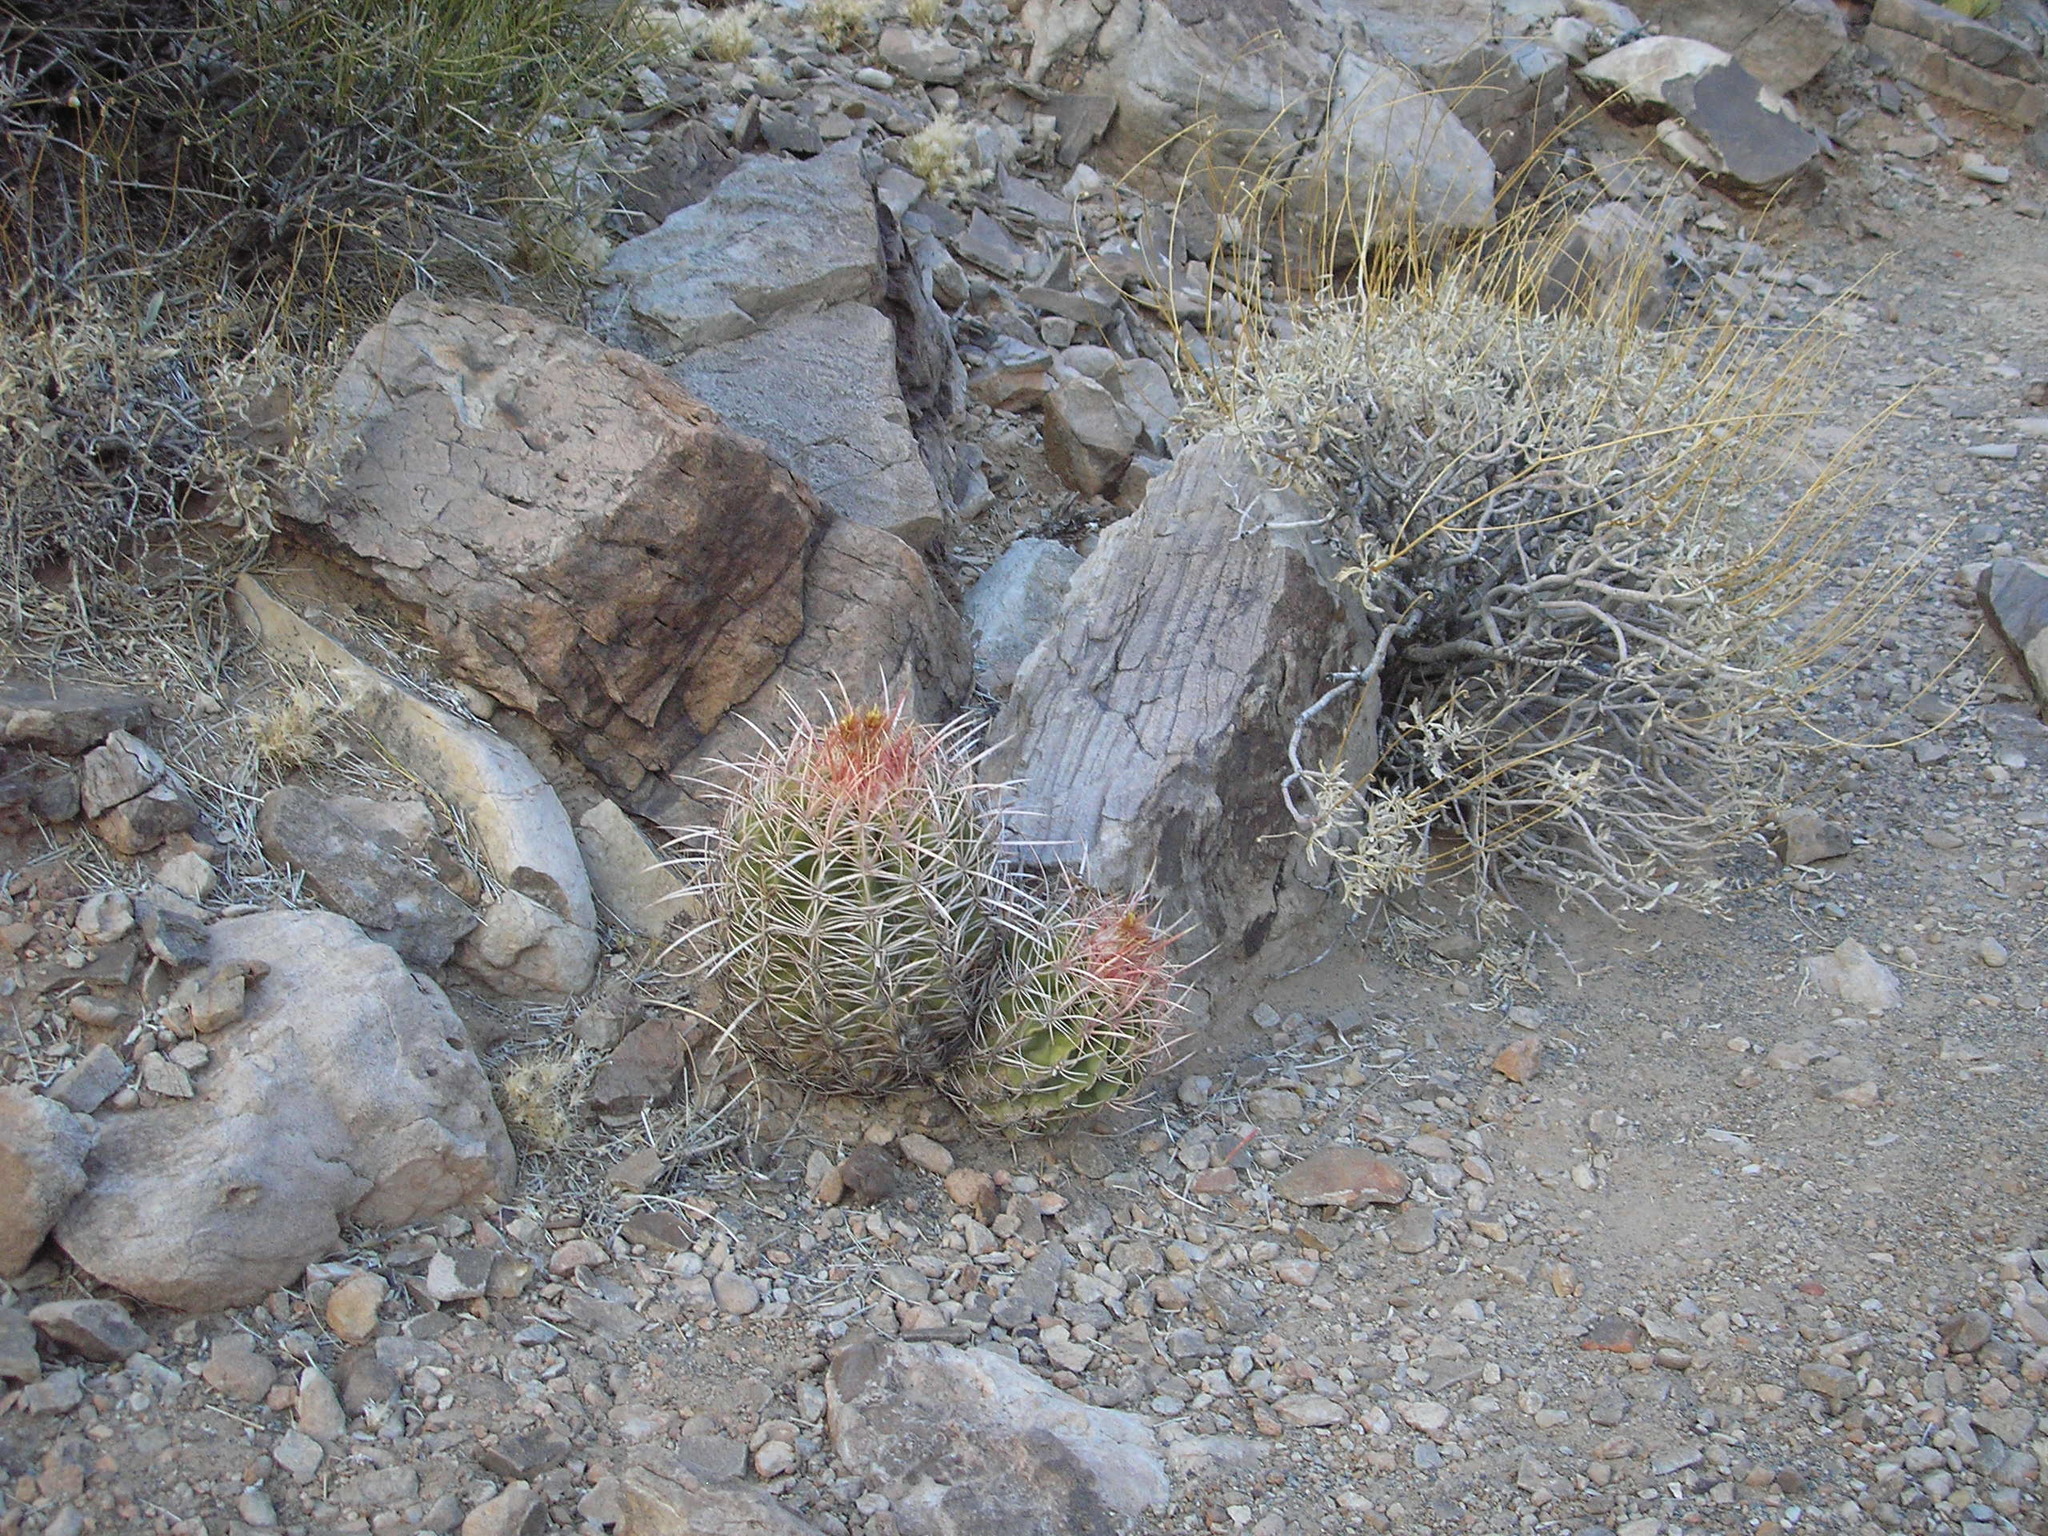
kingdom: Plantae
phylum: Tracheophyta
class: Magnoliopsida
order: Caryophyllales
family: Cactaceae
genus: Echinocactus
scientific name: Echinocactus polycephalus
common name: Cottontop cactus
